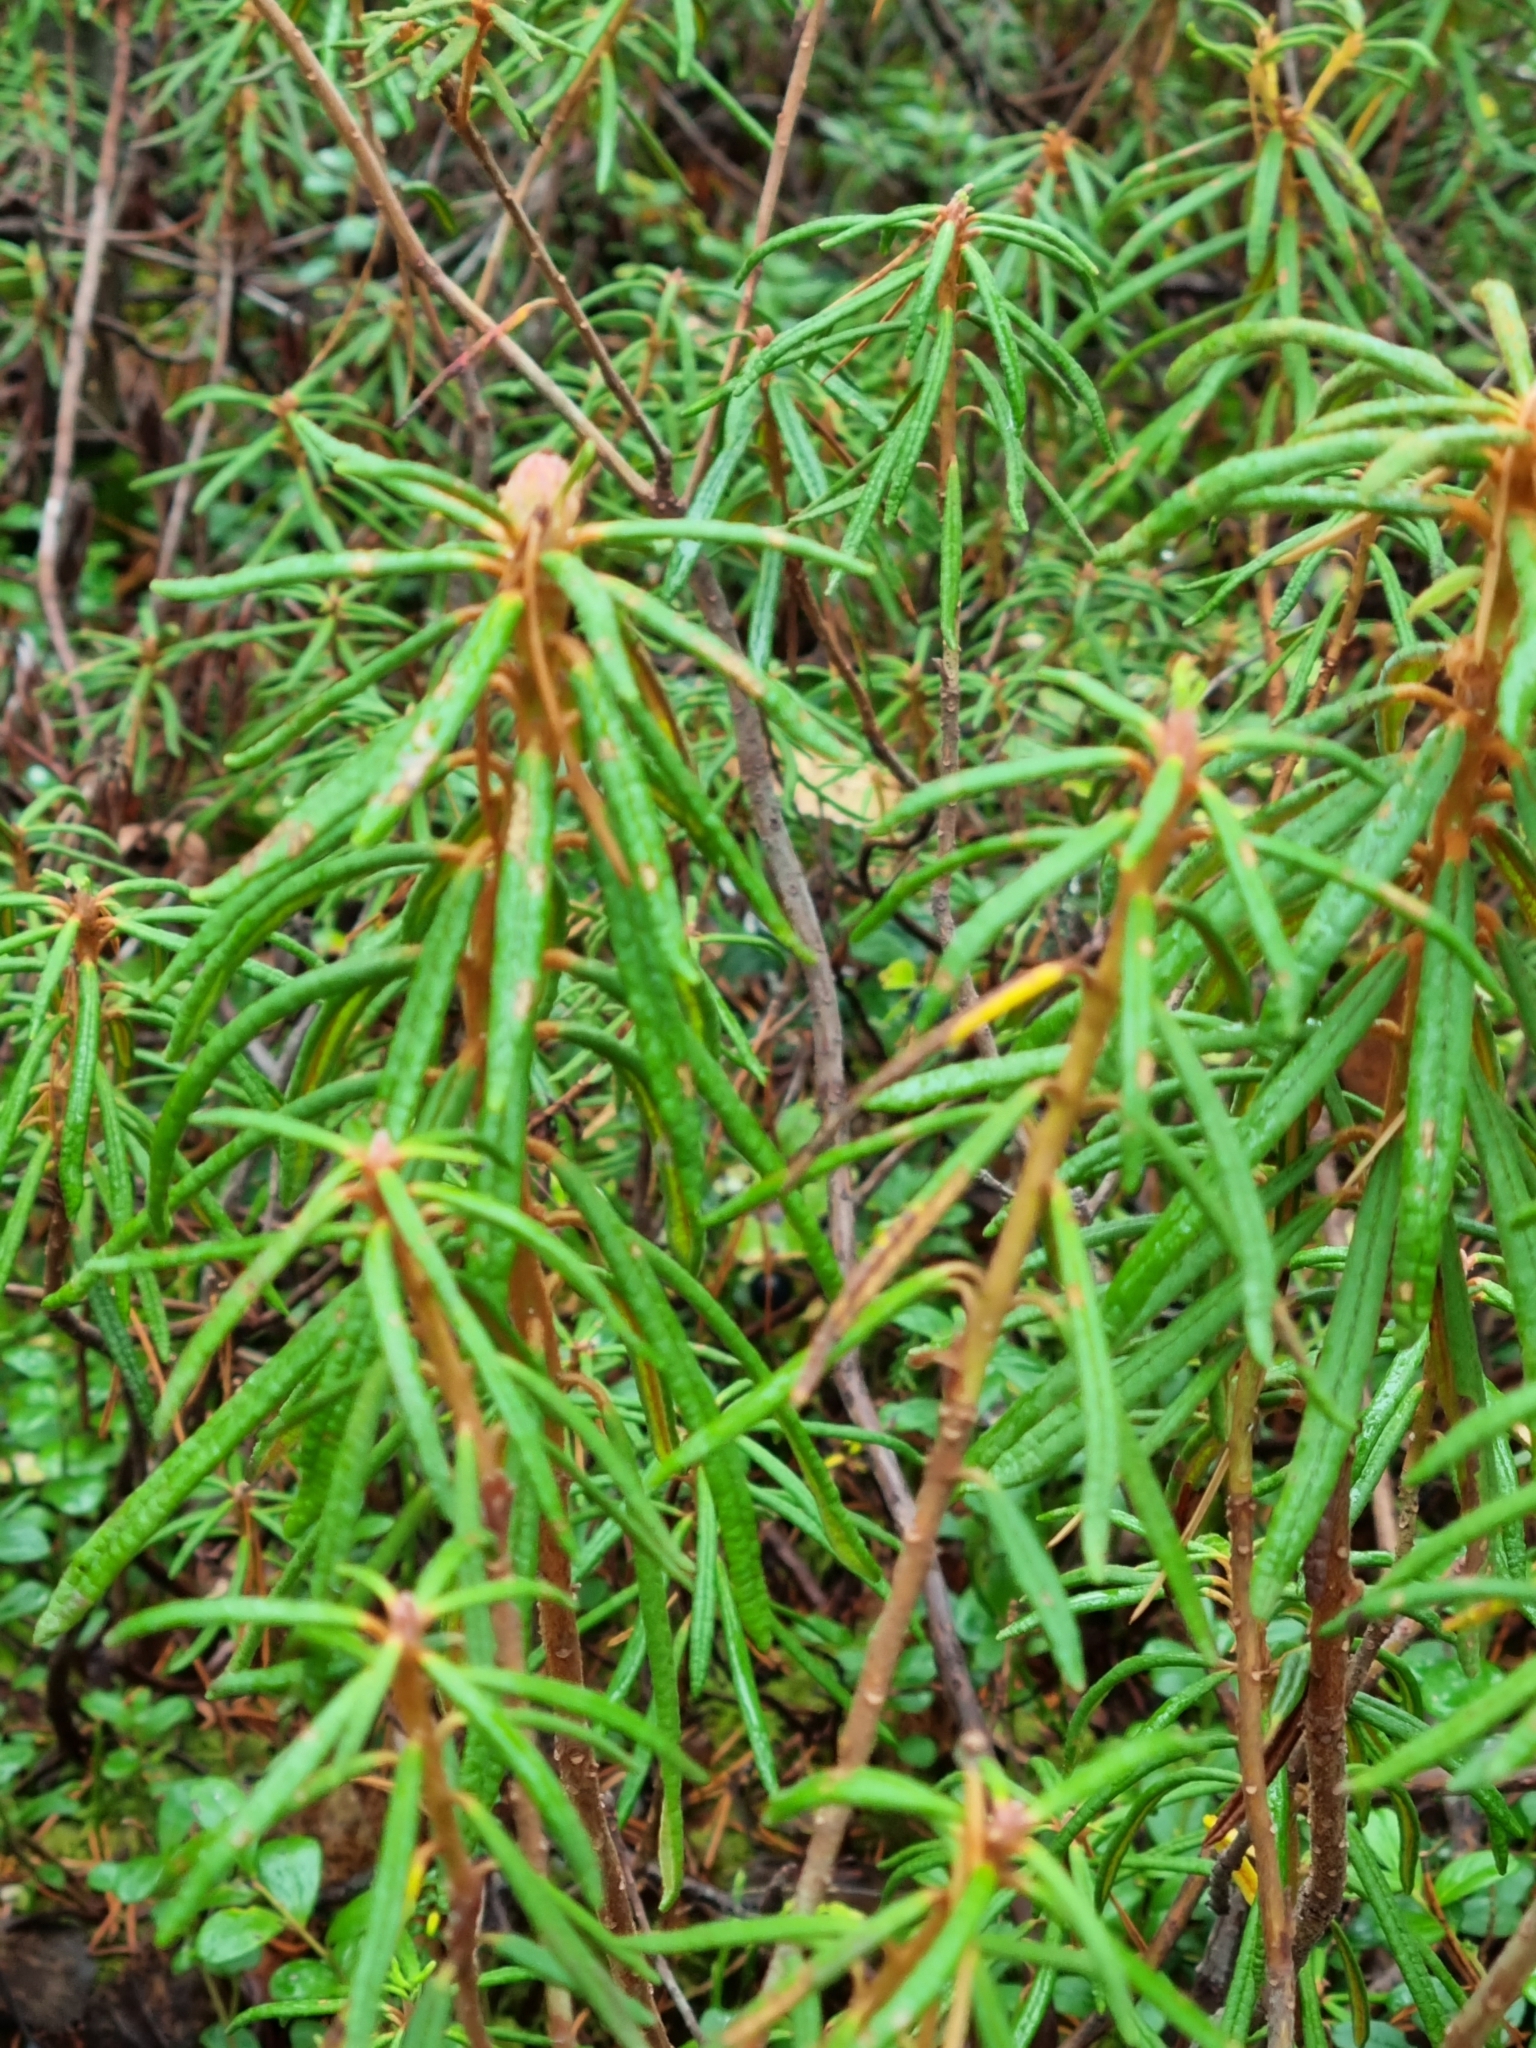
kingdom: Plantae
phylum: Tracheophyta
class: Magnoliopsida
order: Ericales
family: Ericaceae
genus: Rhododendron
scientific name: Rhododendron tomentosum
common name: Marsh labrador tea
